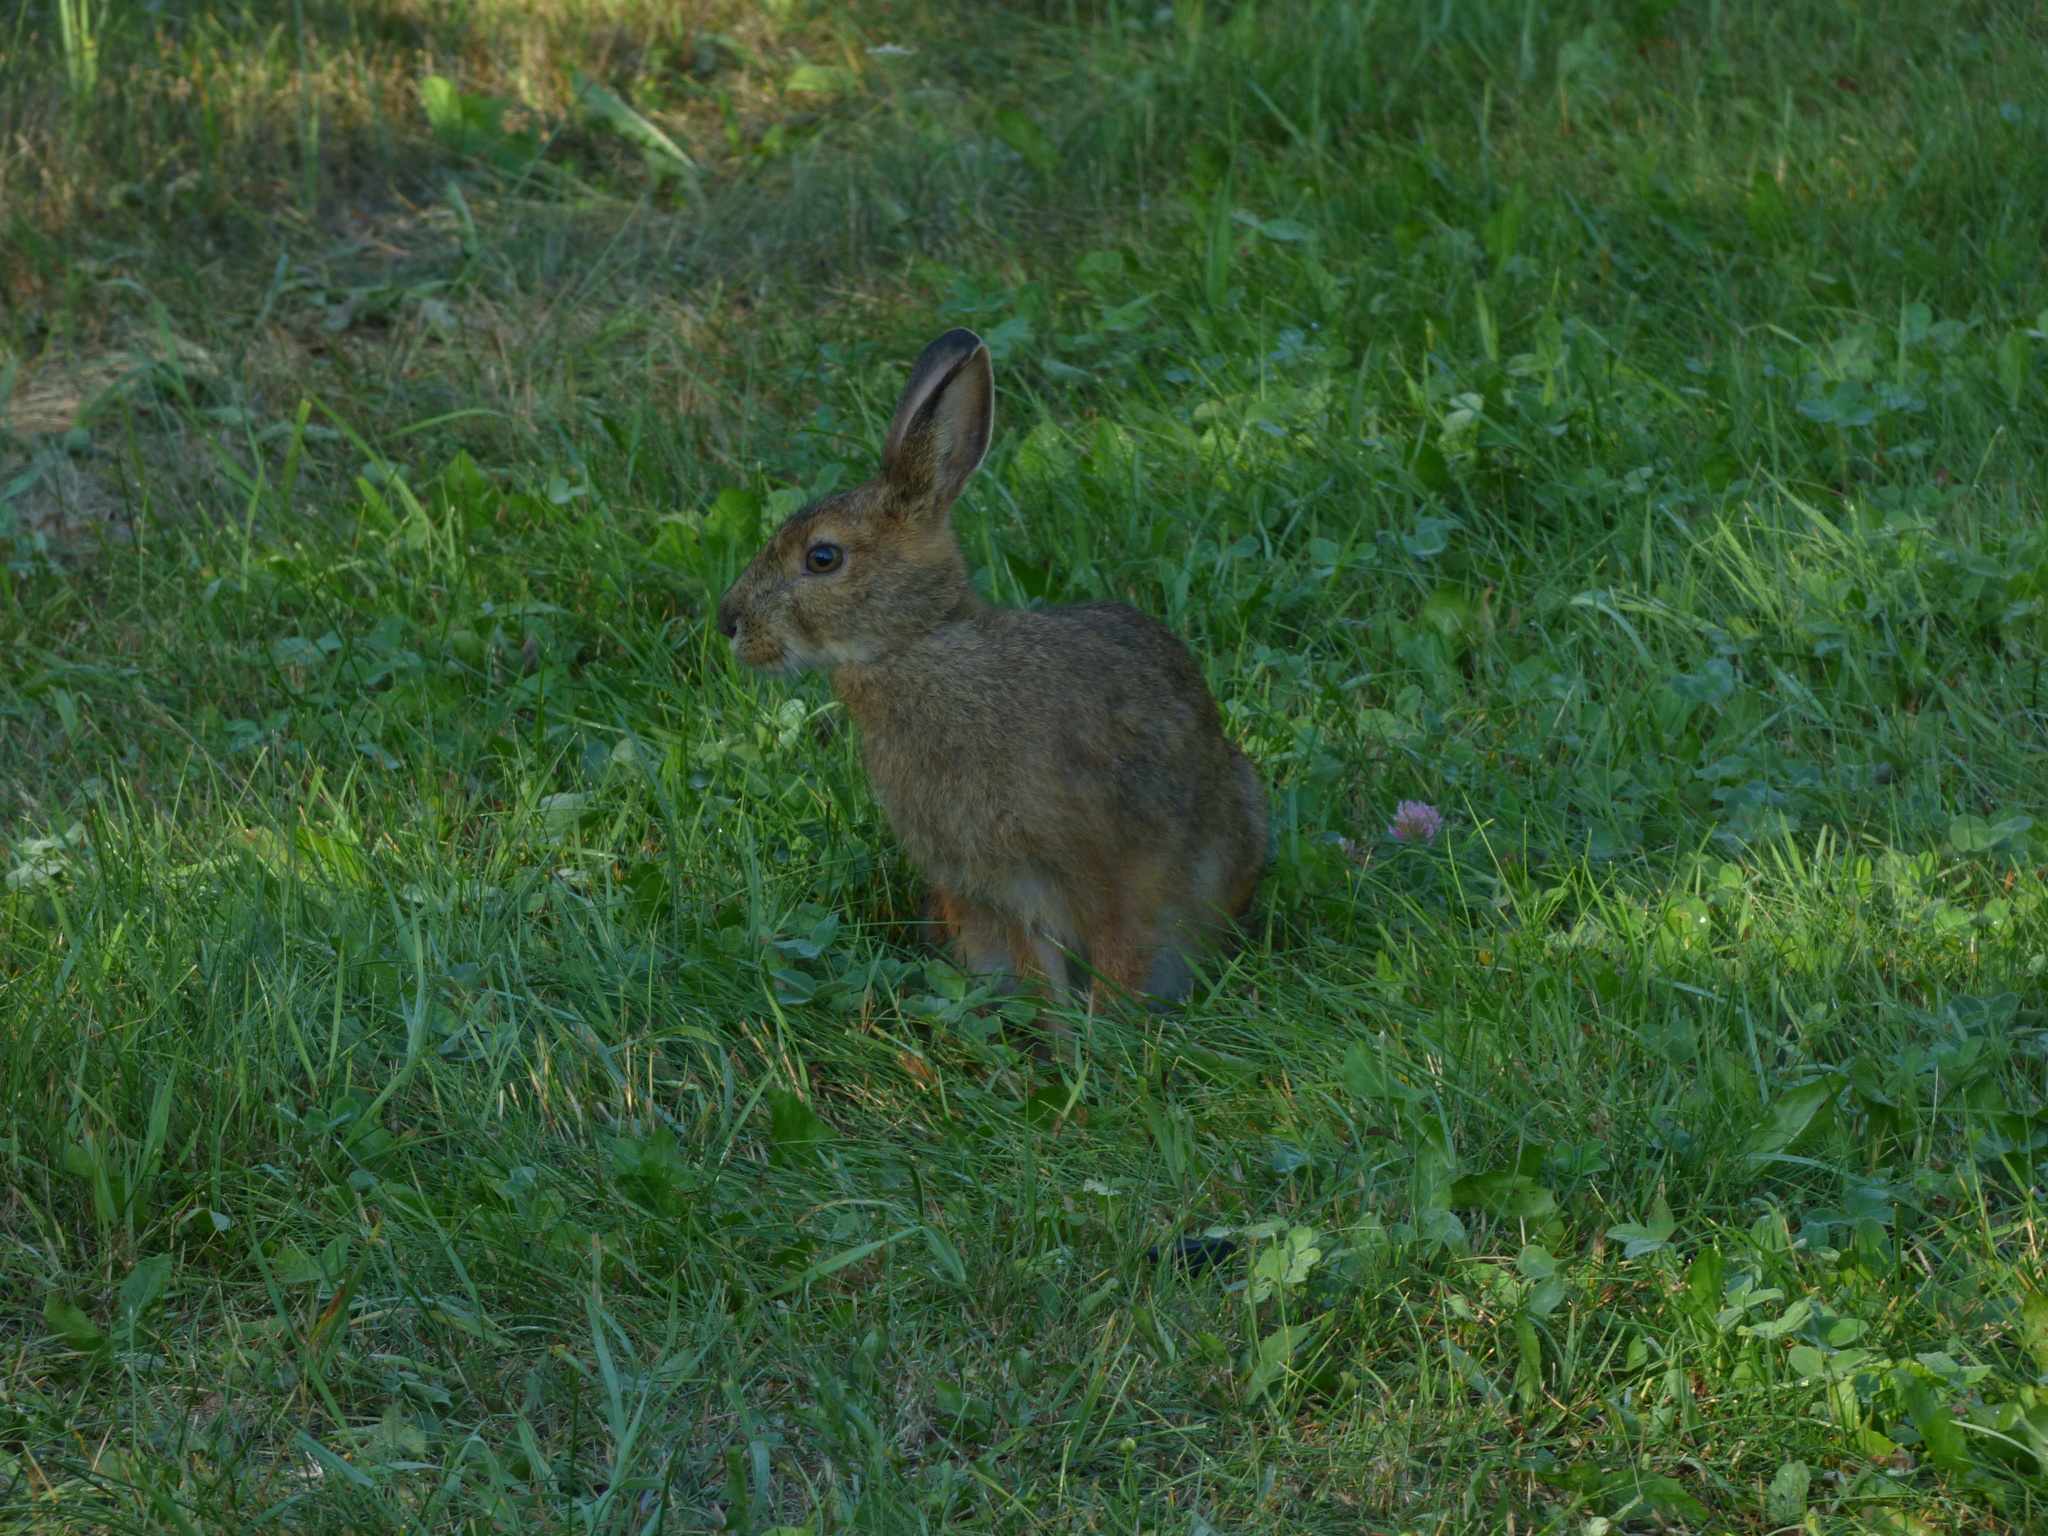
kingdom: Animalia
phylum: Chordata
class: Mammalia
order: Lagomorpha
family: Leporidae
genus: Lepus
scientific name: Lepus americanus
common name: Snowshoe hare
